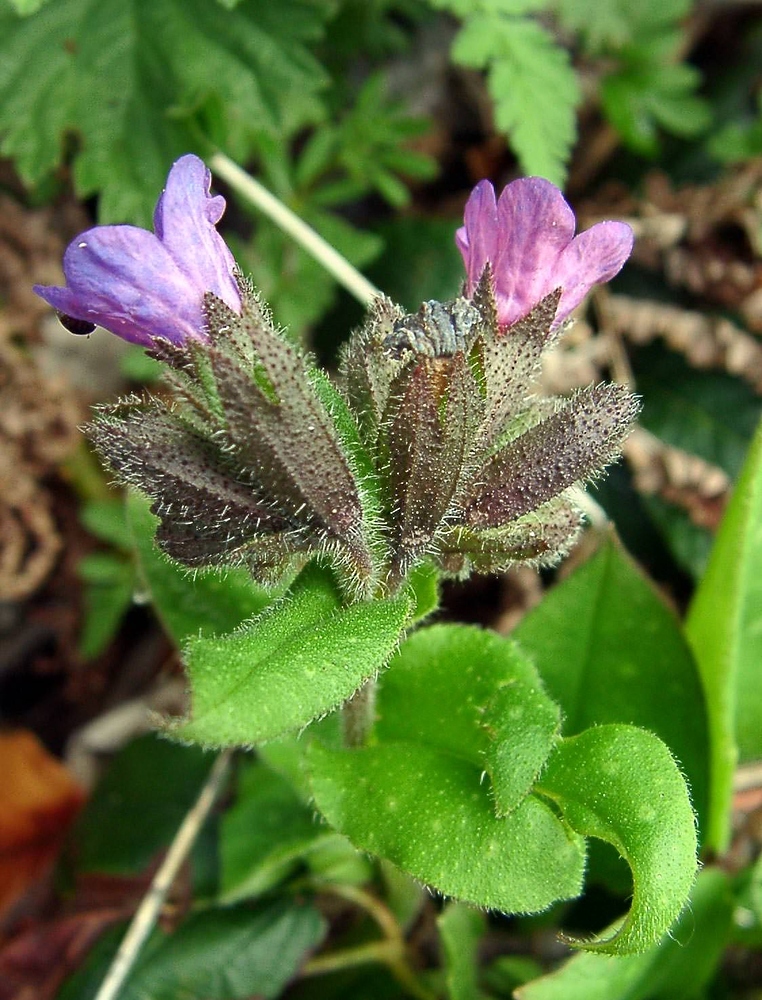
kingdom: Plantae
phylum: Tracheophyta
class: Magnoliopsida
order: Boraginales
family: Boraginaceae
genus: Pulmonaria
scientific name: Pulmonaria affinis
